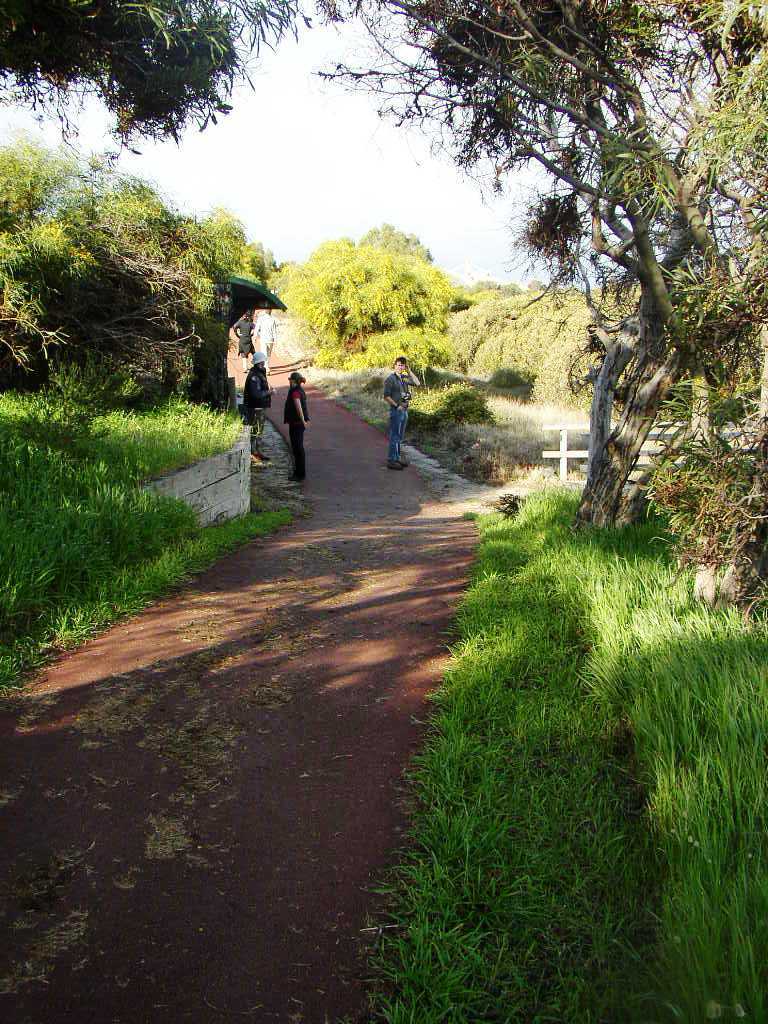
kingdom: Plantae
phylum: Tracheophyta
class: Magnoliopsida
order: Fabales
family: Fabaceae
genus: Acacia
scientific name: Acacia saligna
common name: Orange wattle
